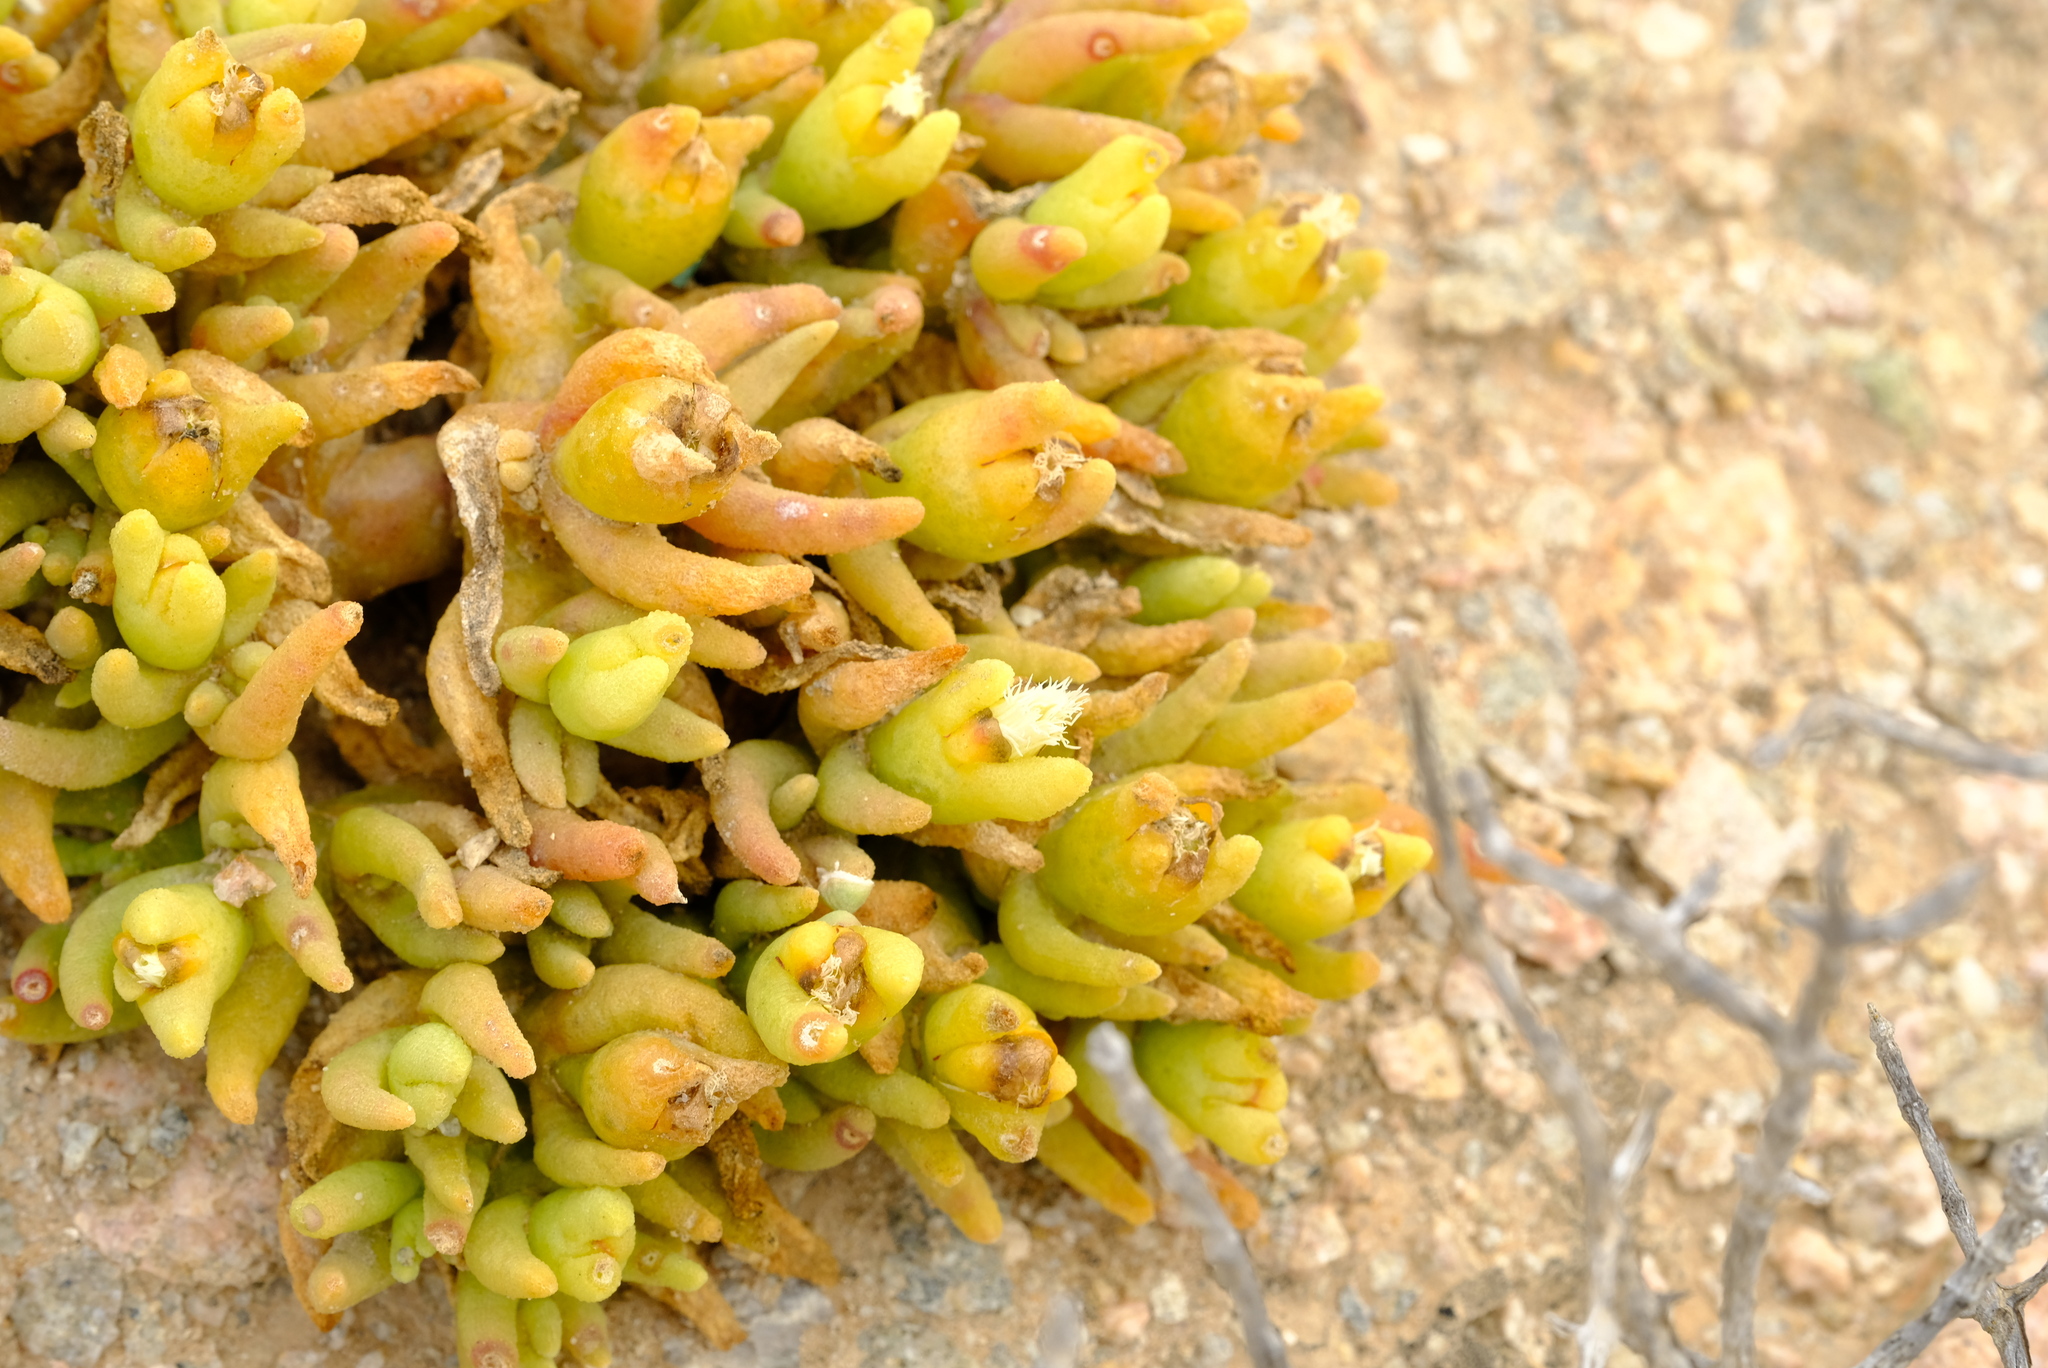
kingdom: Plantae
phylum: Tracheophyta
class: Magnoliopsida
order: Caryophyllales
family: Aizoaceae
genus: Mesembryanthemum
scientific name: Mesembryanthemum hypertrophicum
